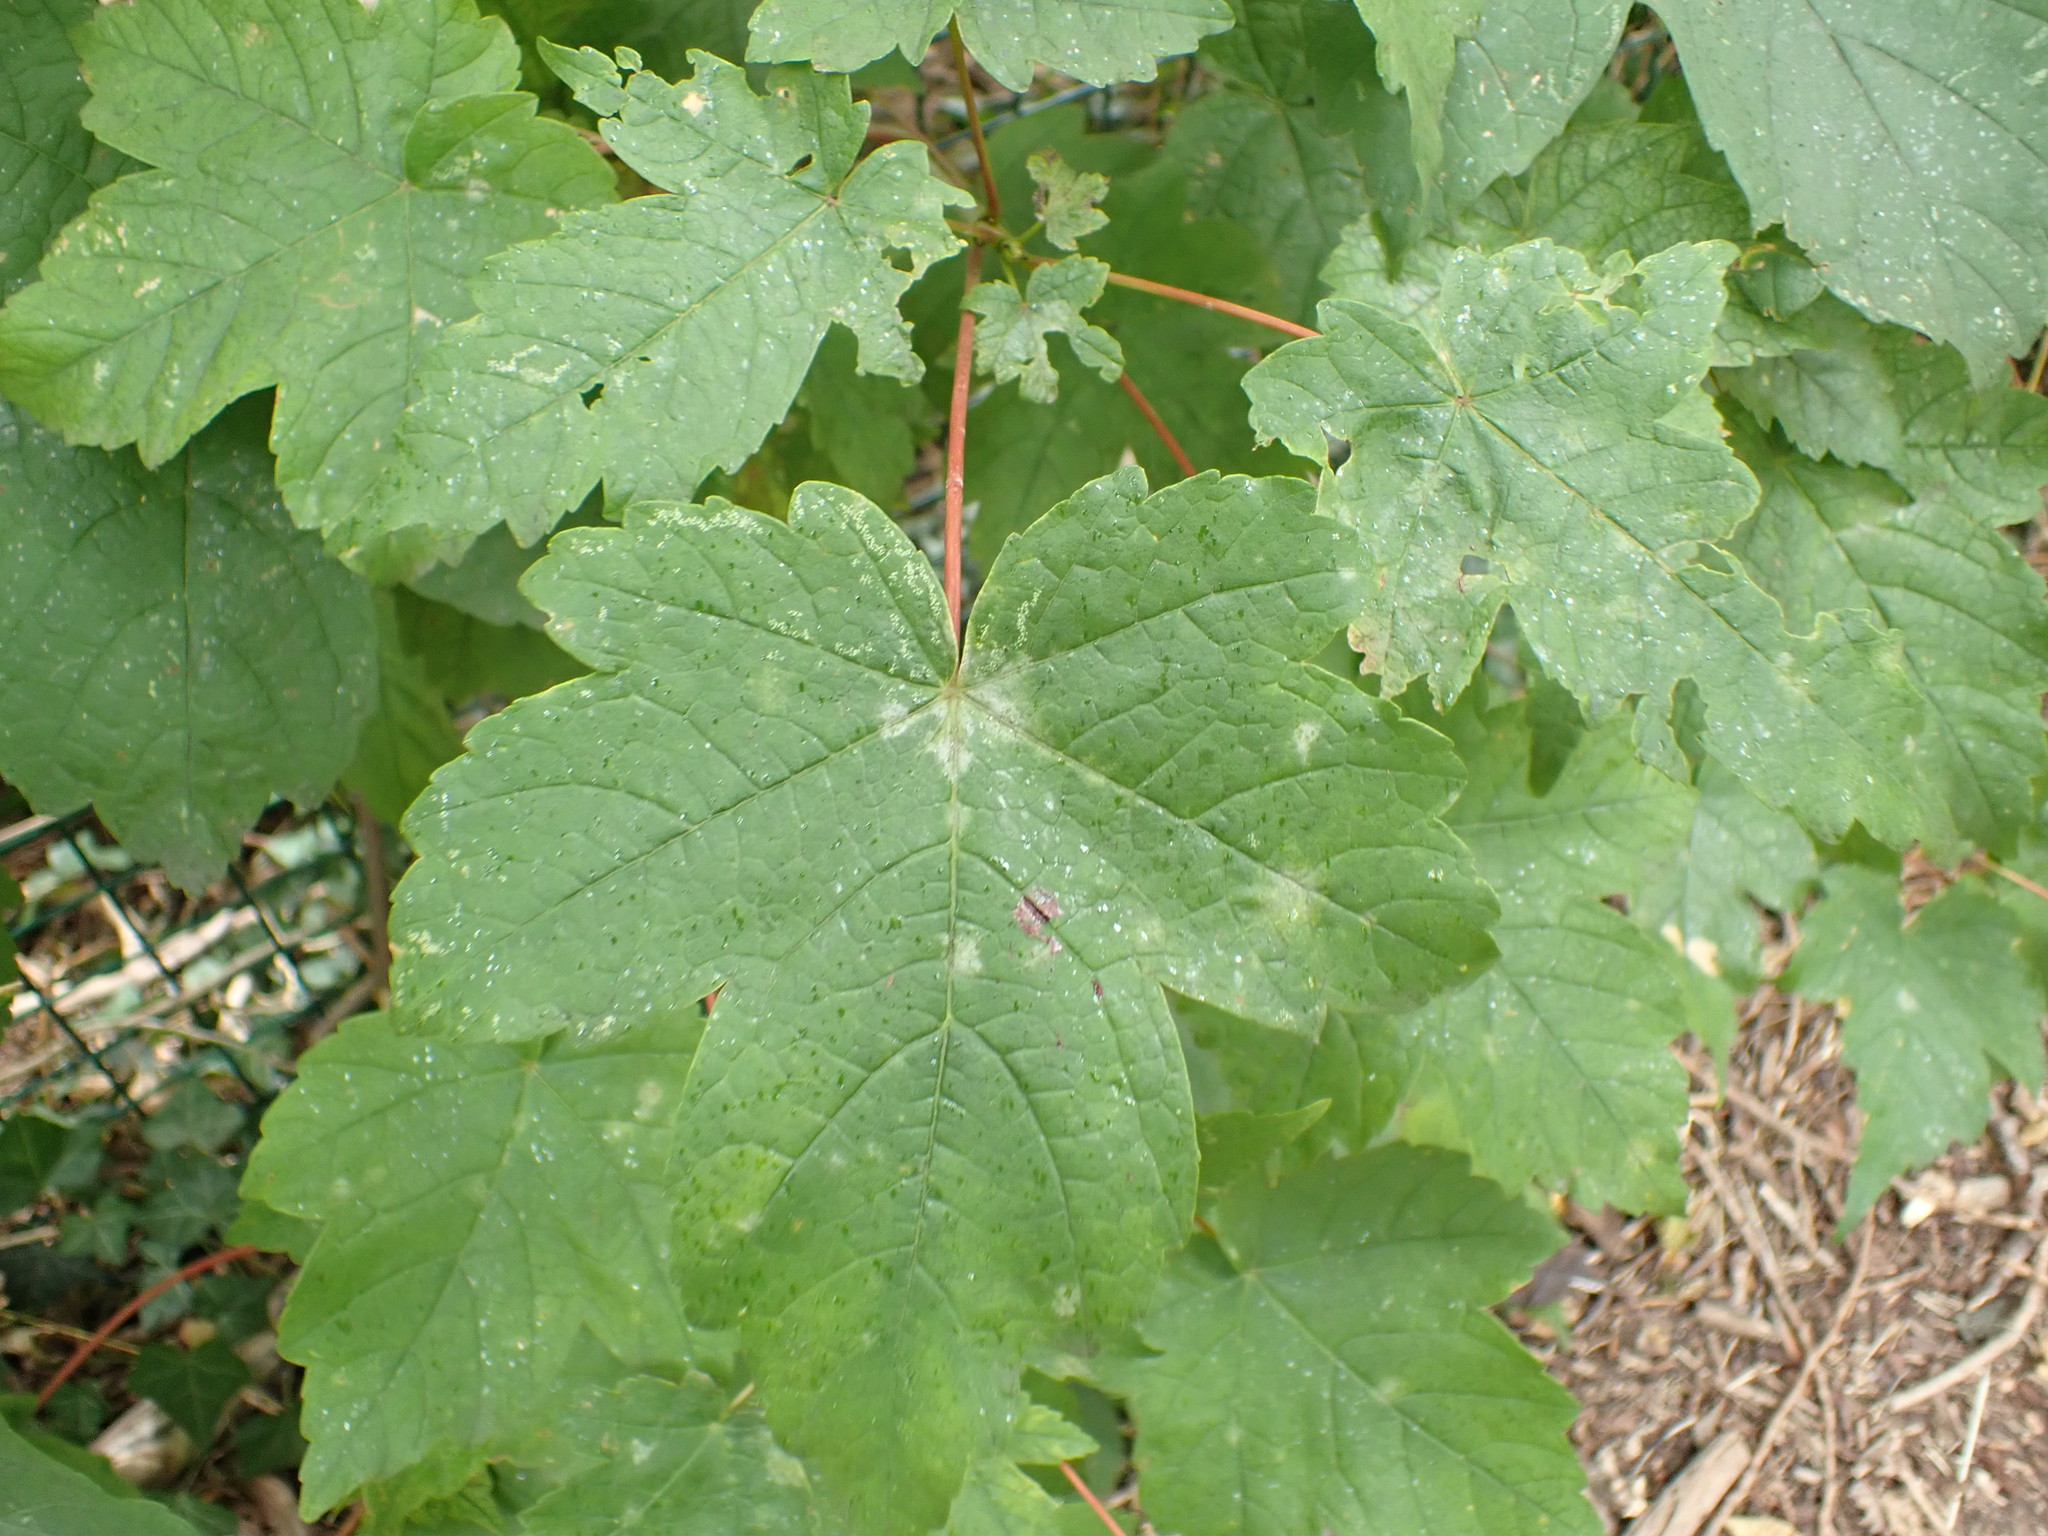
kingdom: Plantae
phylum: Tracheophyta
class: Magnoliopsida
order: Sapindales
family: Sapindaceae
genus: Acer
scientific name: Acer pseudoplatanus
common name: Sycamore
